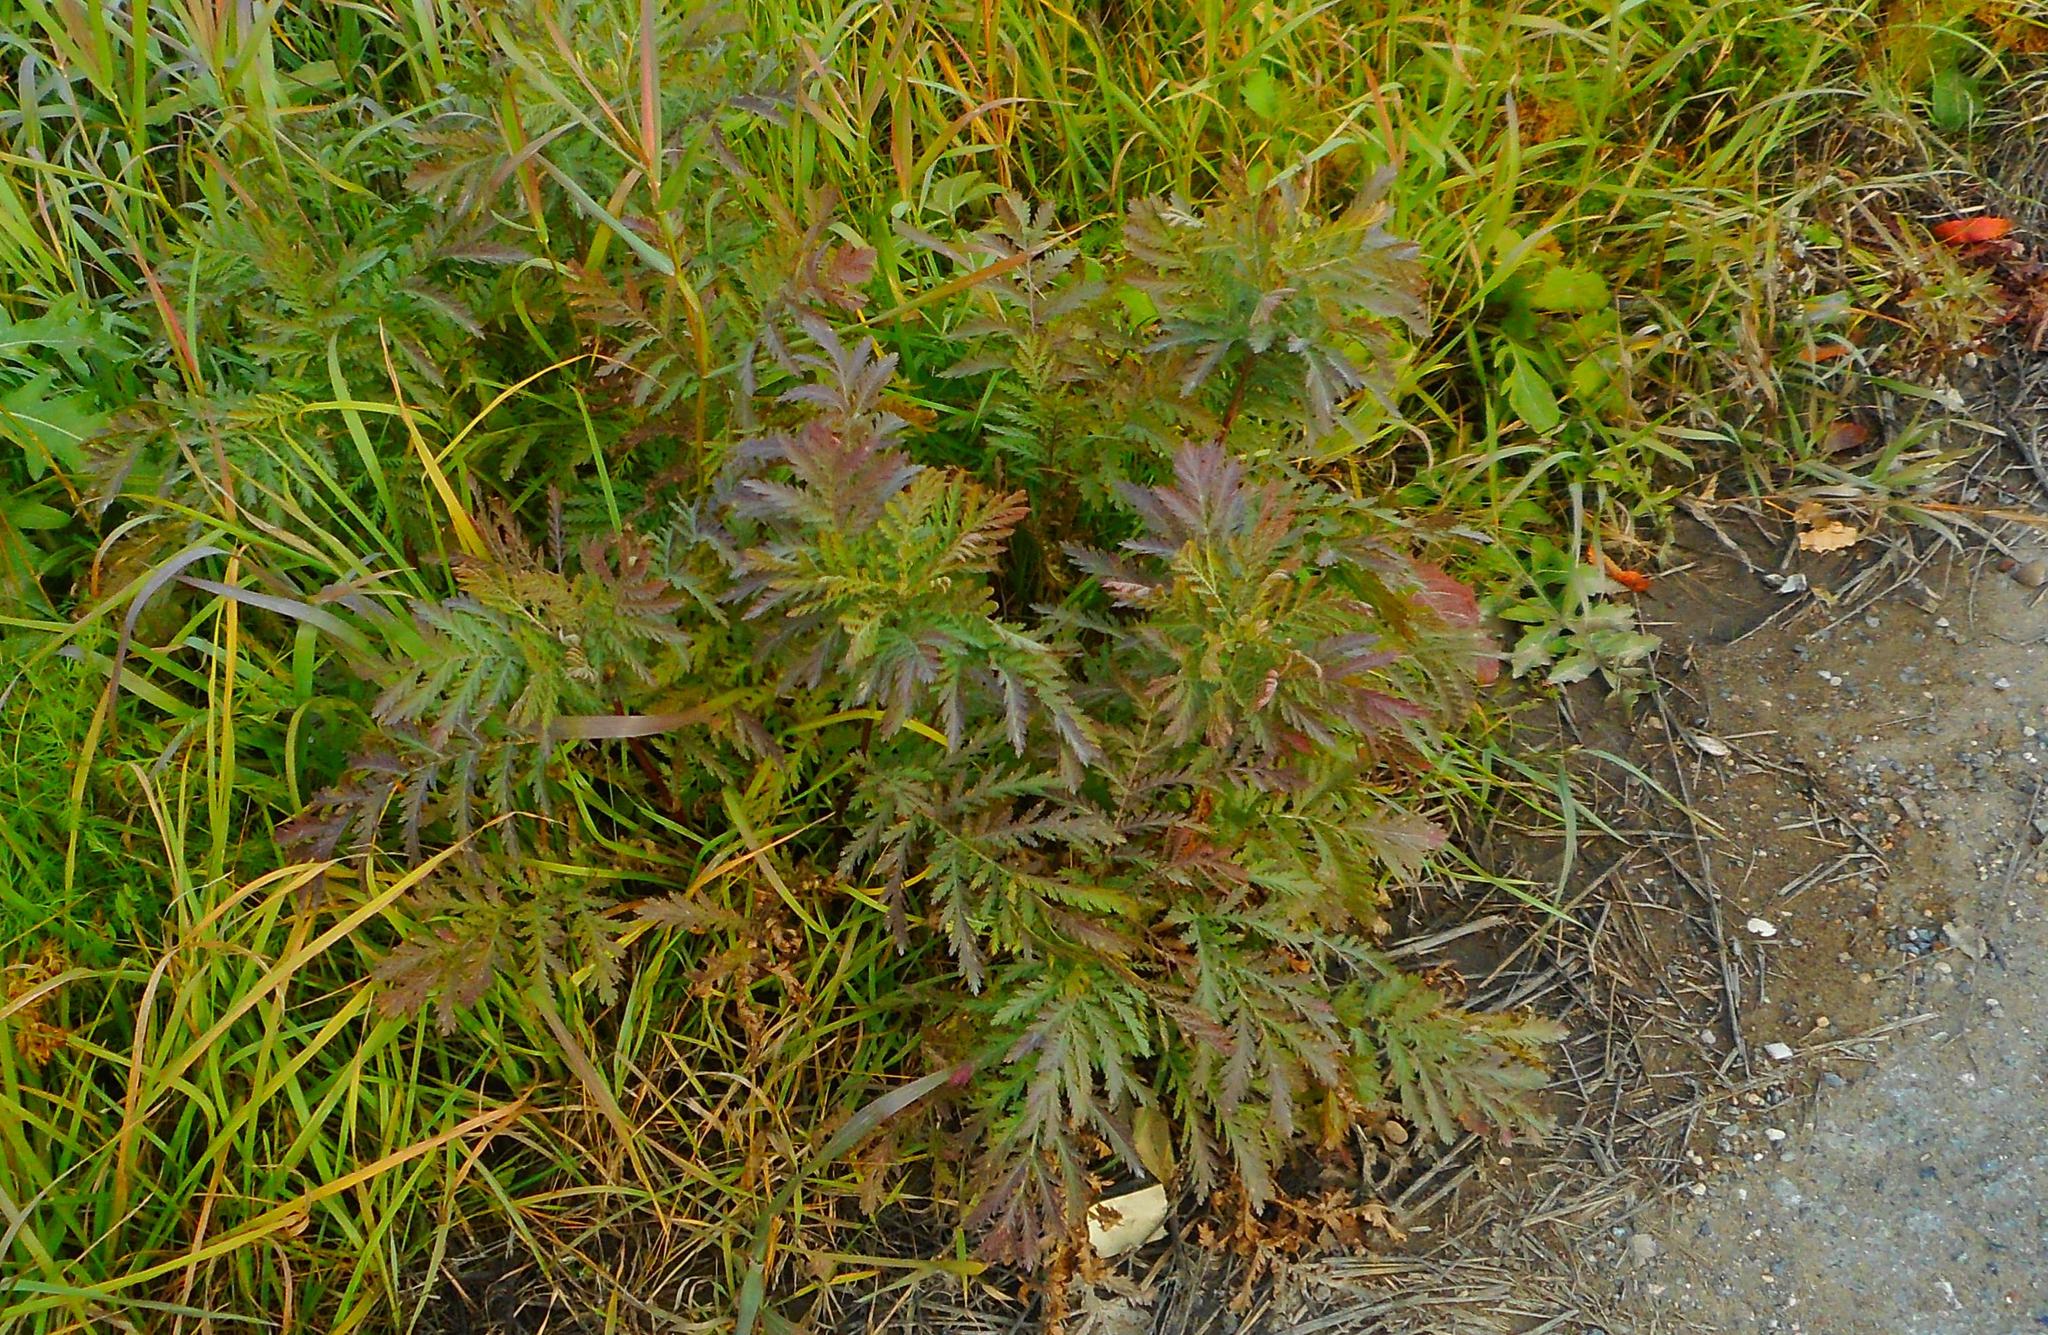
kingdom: Plantae
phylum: Tracheophyta
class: Magnoliopsida
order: Asterales
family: Asteraceae
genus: Tanacetum
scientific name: Tanacetum vulgare
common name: Common tansy
